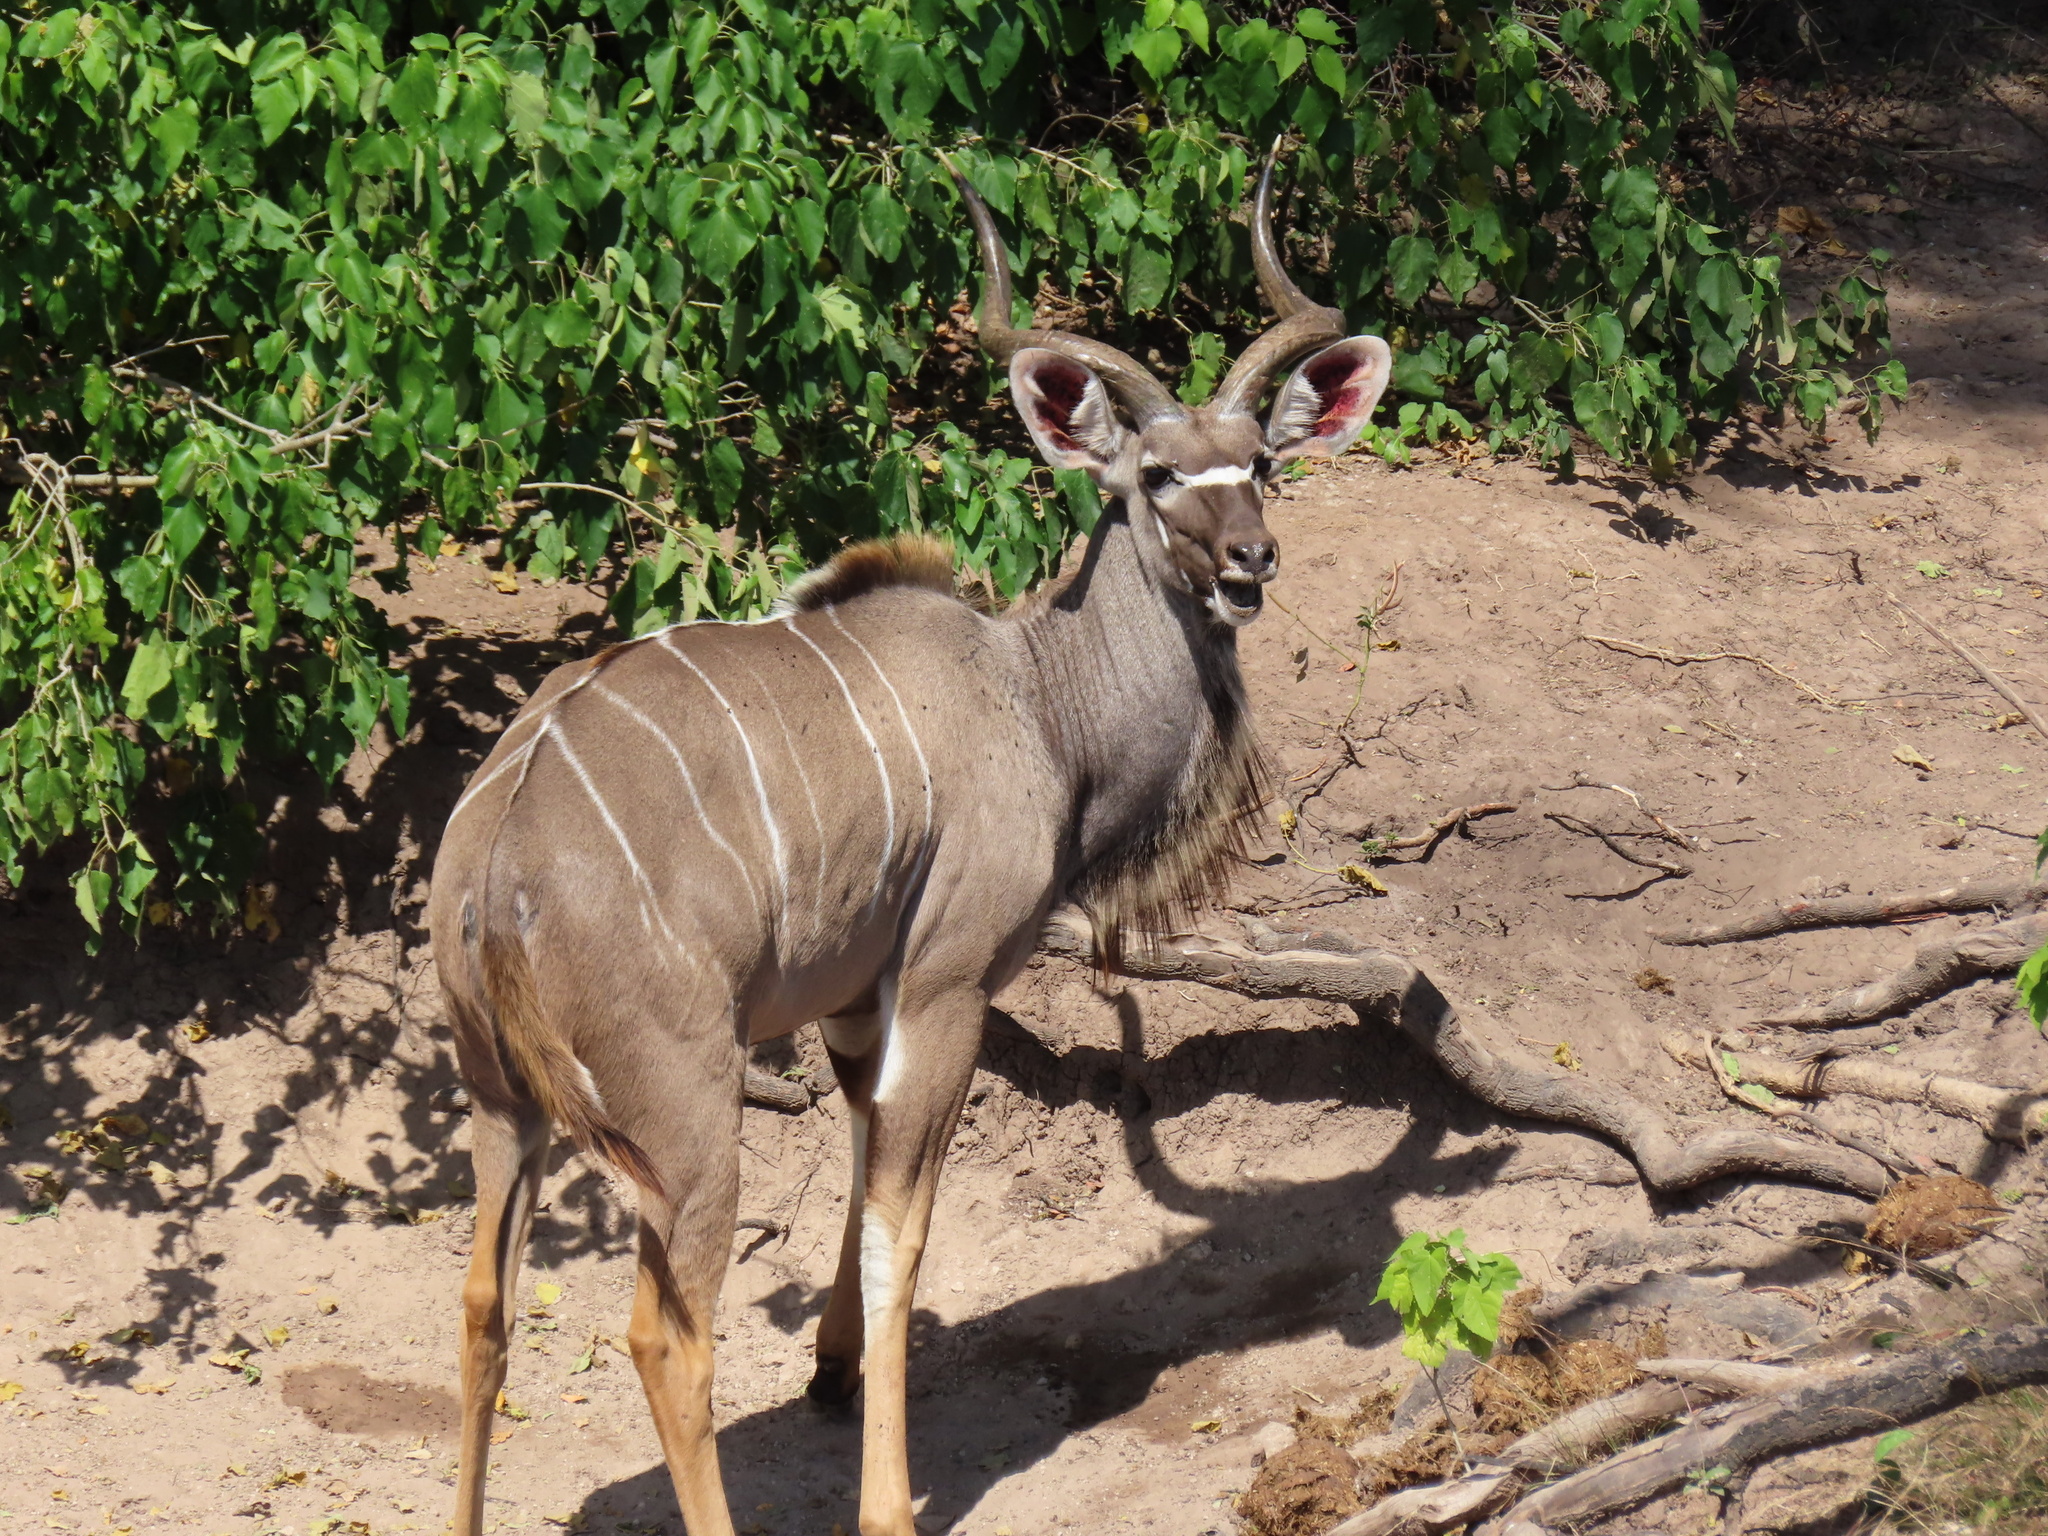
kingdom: Animalia
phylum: Chordata
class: Mammalia
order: Artiodactyla
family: Bovidae
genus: Tragelaphus
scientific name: Tragelaphus strepsiceros
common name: Greater kudu
